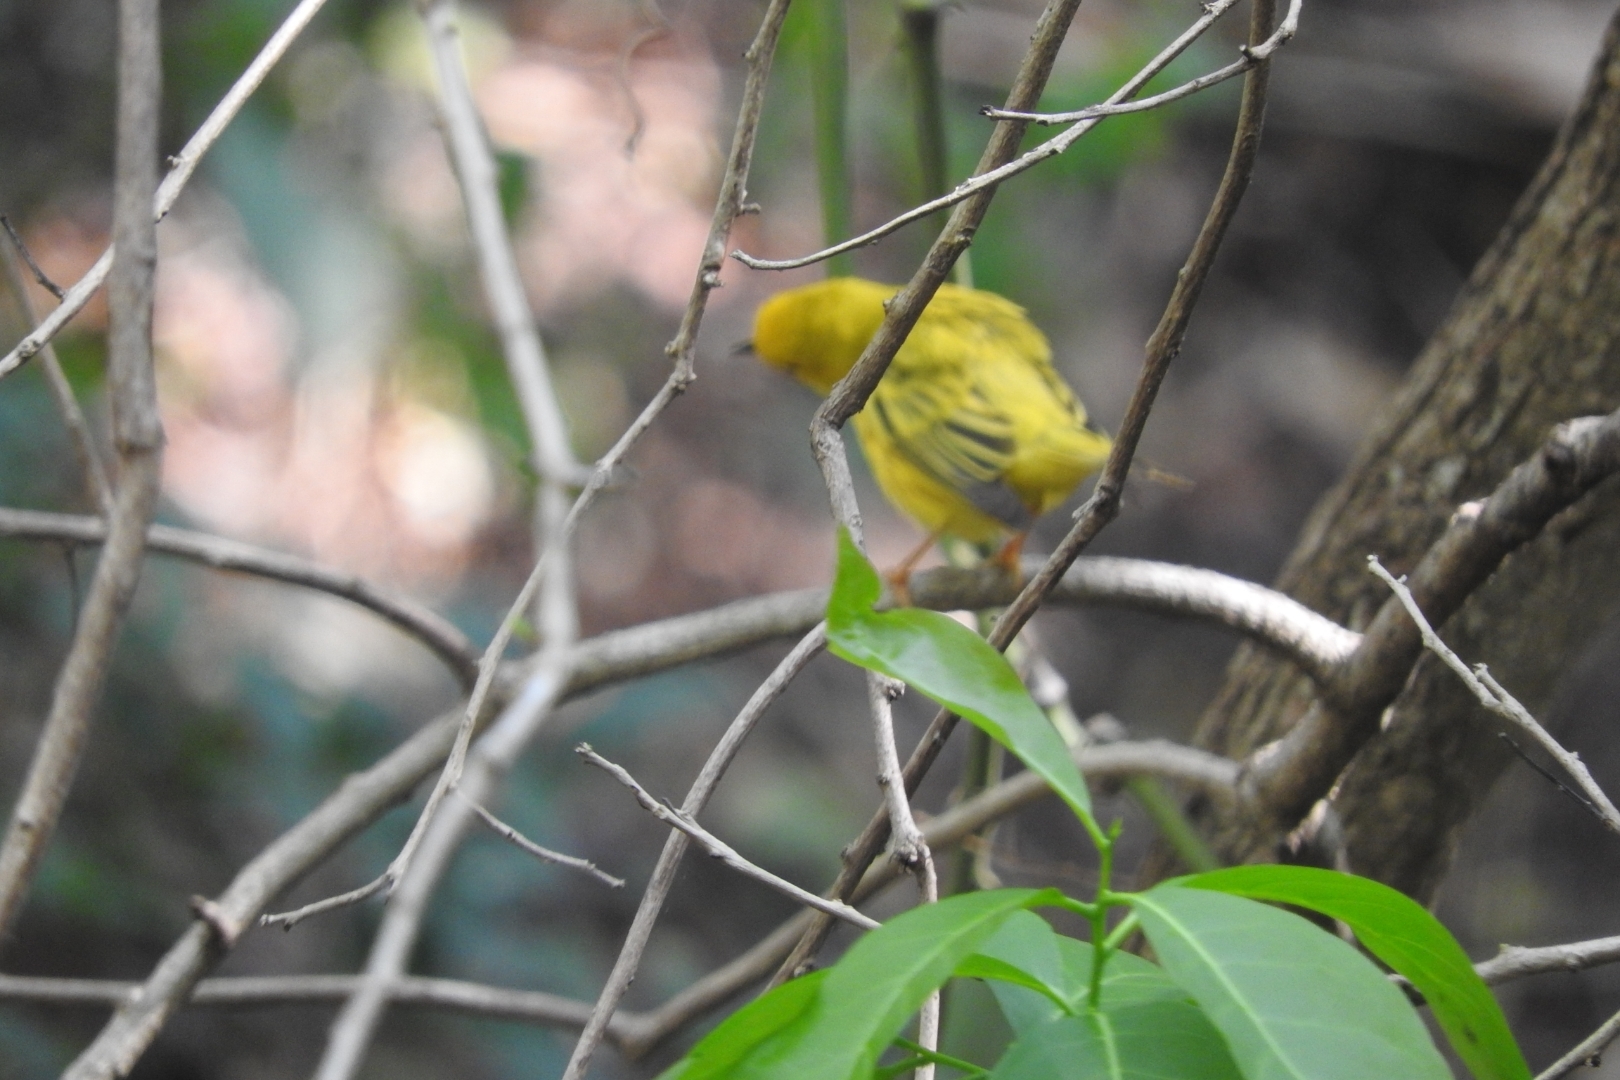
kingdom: Animalia
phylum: Chordata
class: Aves
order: Passeriformes
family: Parulidae
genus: Setophaga
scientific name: Setophaga petechia
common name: Yellow warbler
